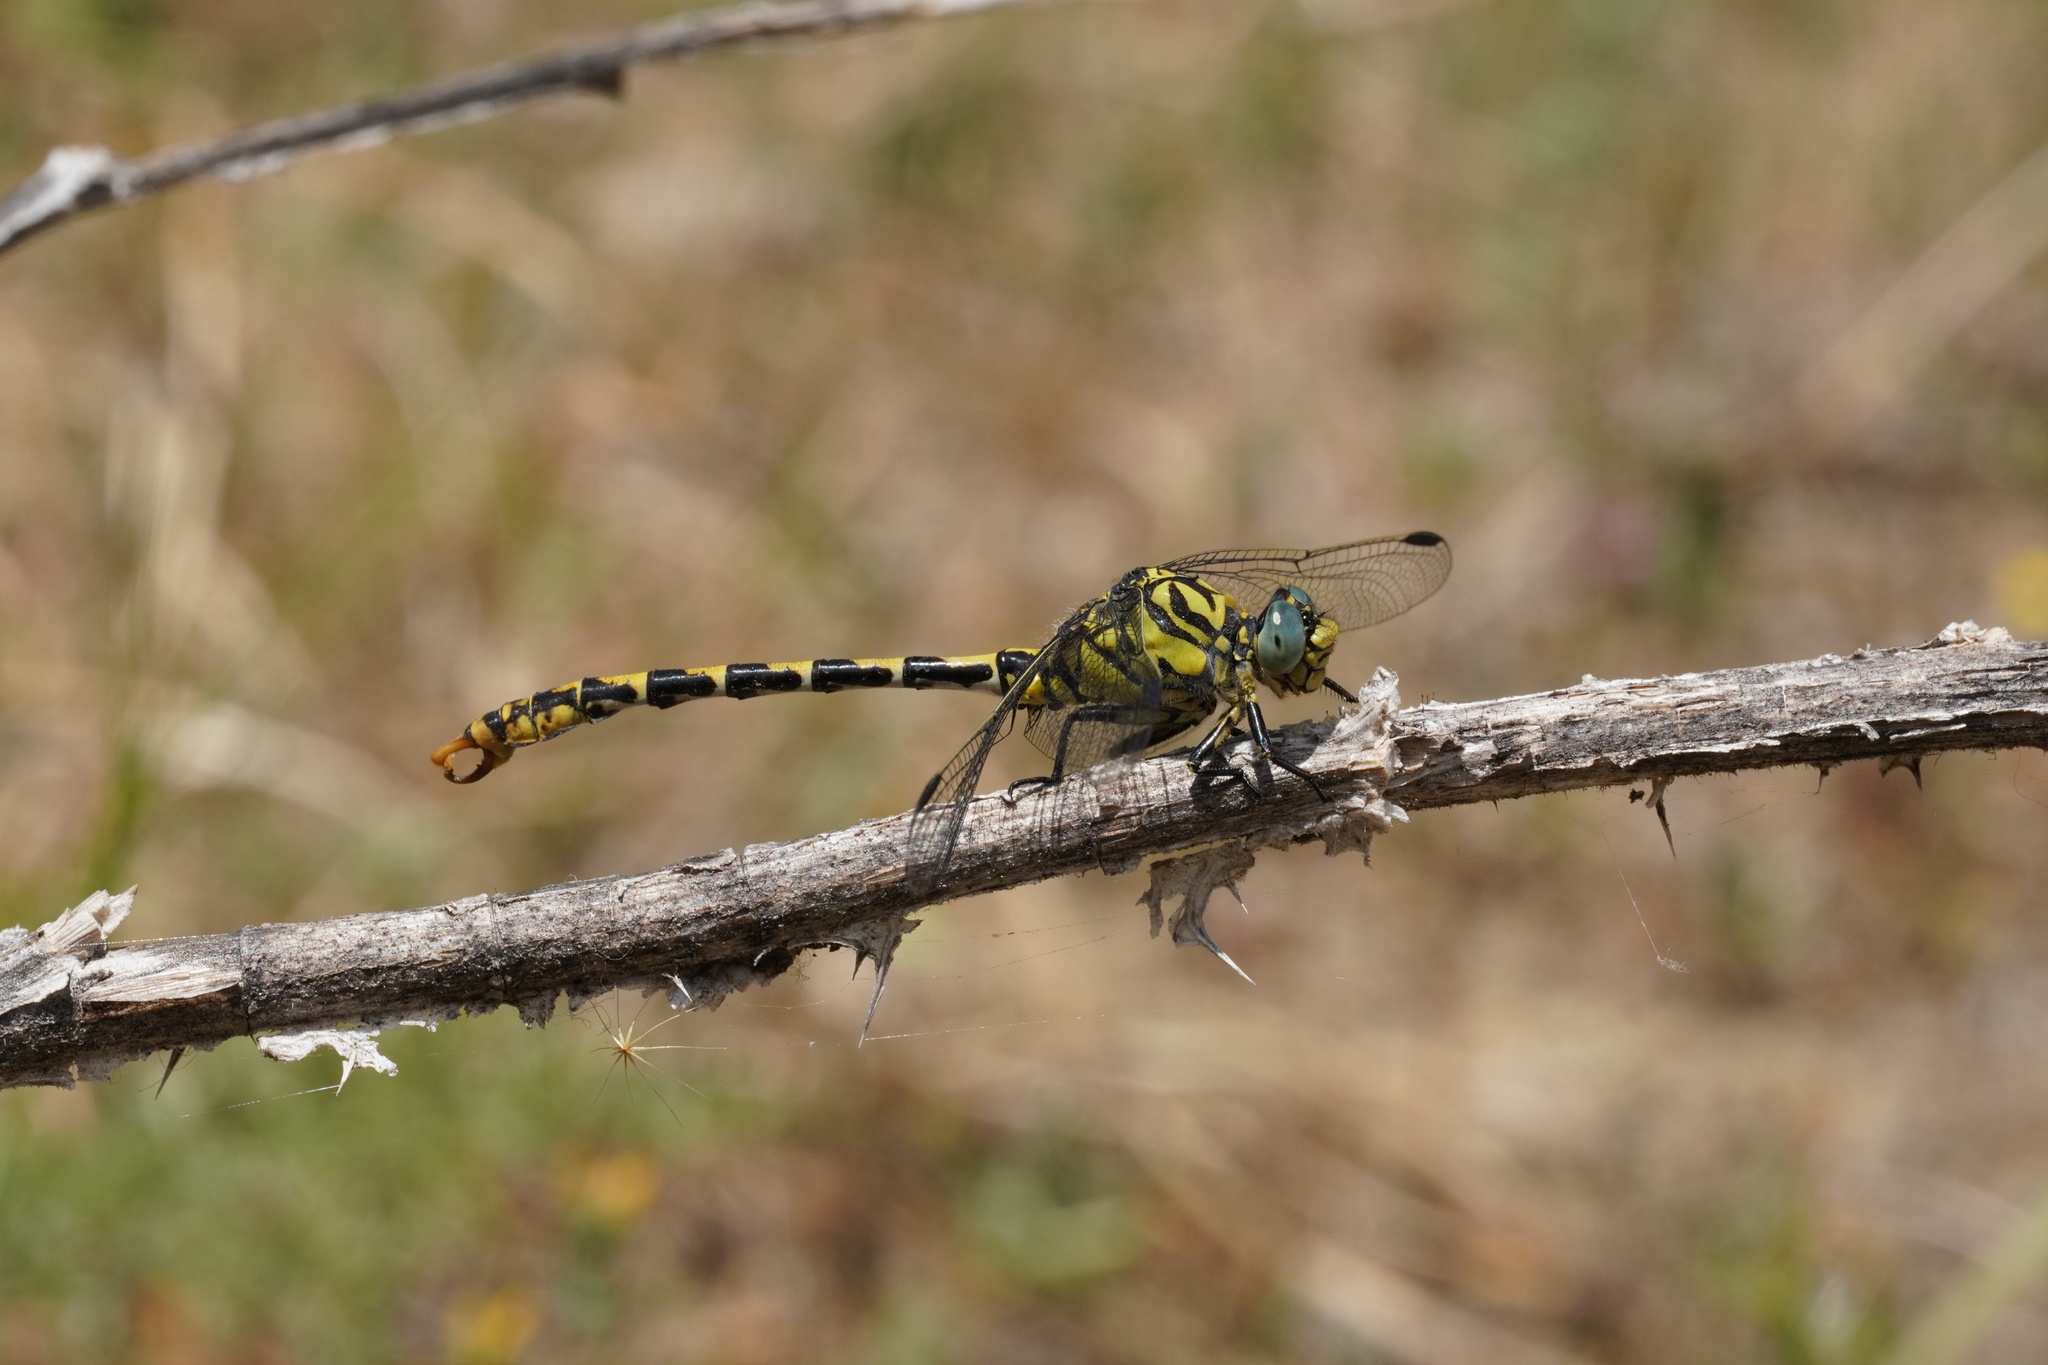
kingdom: Animalia
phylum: Arthropoda
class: Insecta
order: Odonata
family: Gomphidae
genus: Onychogomphus
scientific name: Onychogomphus forcipatus
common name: Small pincertail
